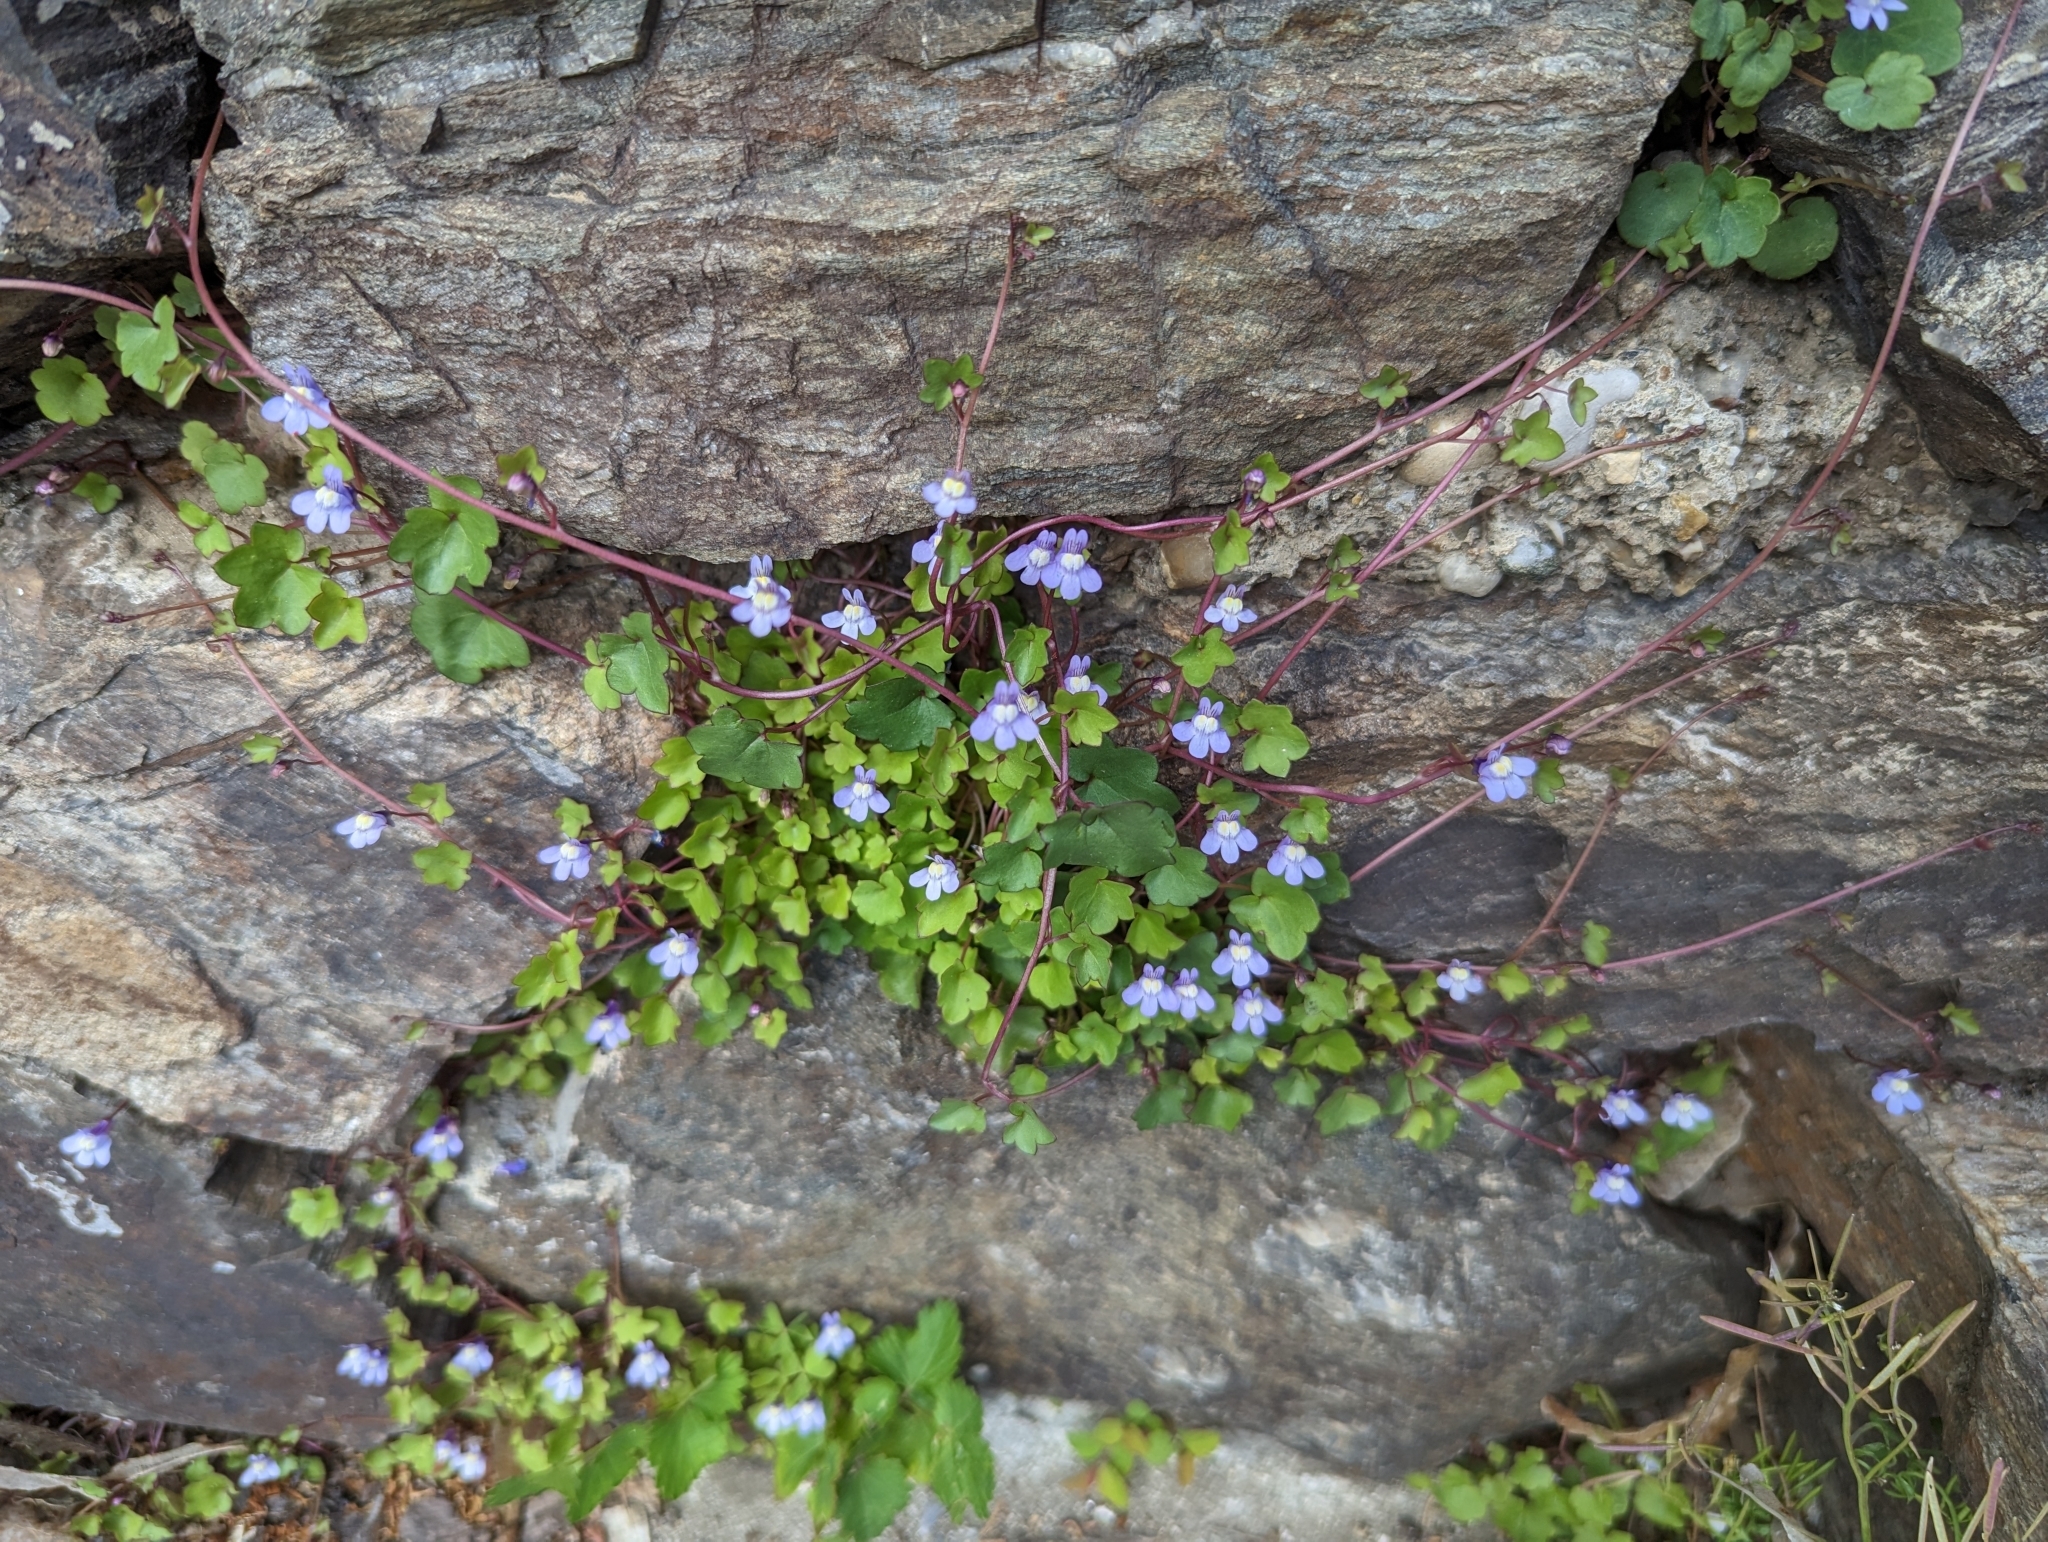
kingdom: Plantae
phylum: Tracheophyta
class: Magnoliopsida
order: Lamiales
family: Plantaginaceae
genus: Cymbalaria
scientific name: Cymbalaria muralis
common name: Ivy-leaved toadflax
